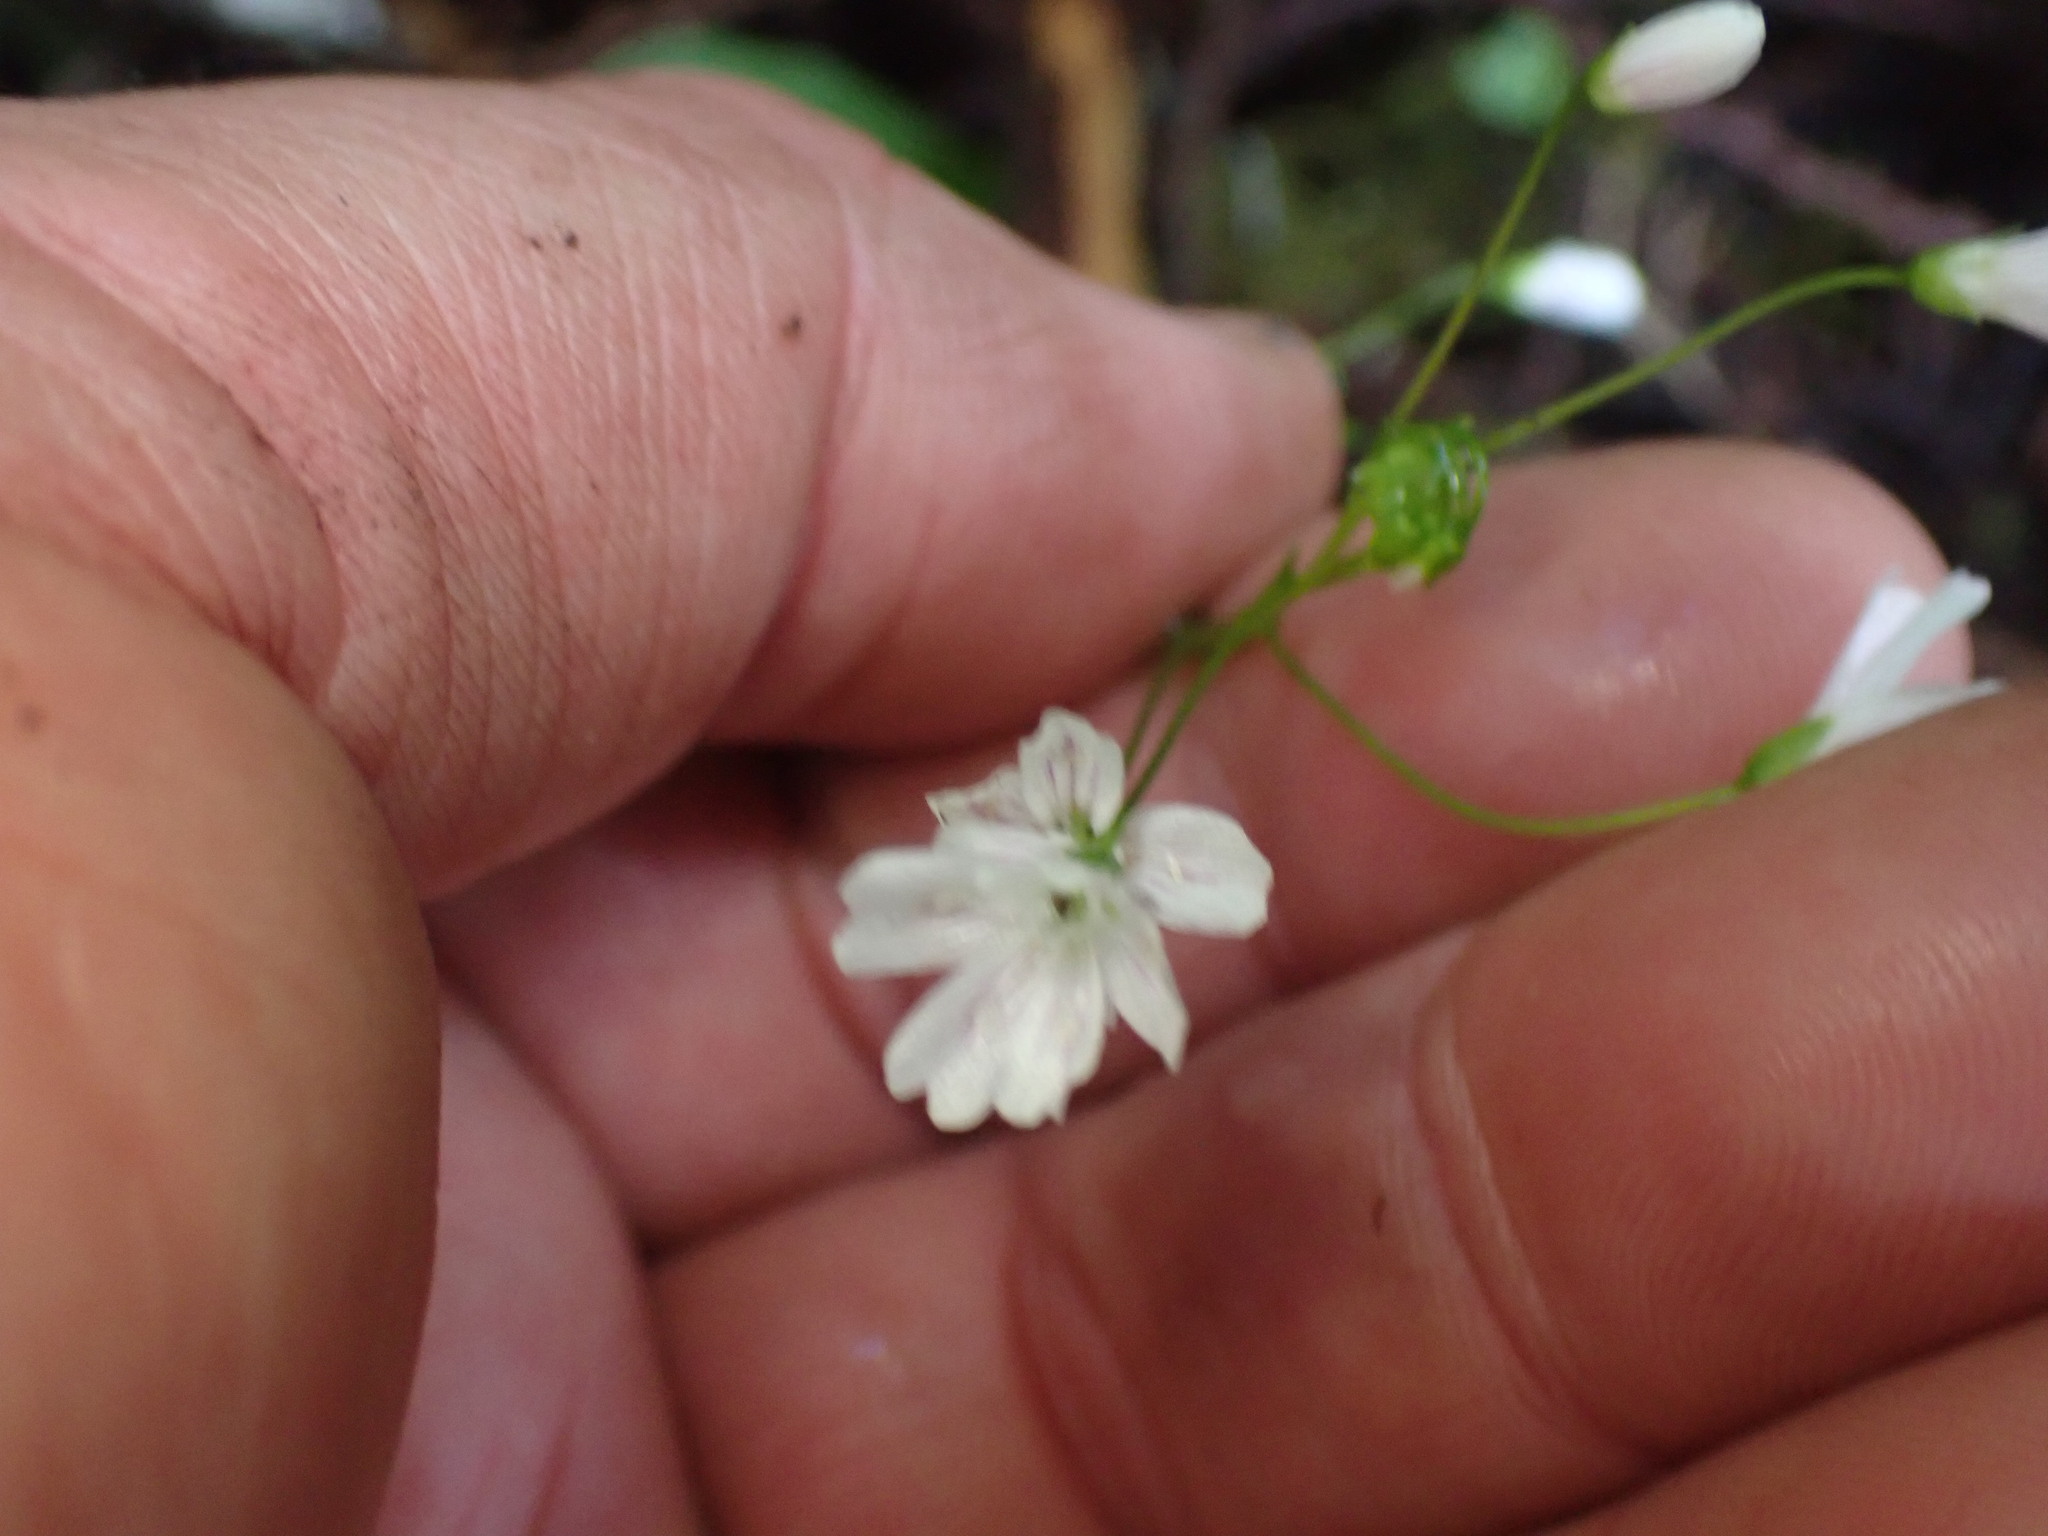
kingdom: Plantae
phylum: Tracheophyta
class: Magnoliopsida
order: Caryophyllales
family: Montiaceae
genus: Claytonia
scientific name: Claytonia sibirica
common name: Pink purslane
